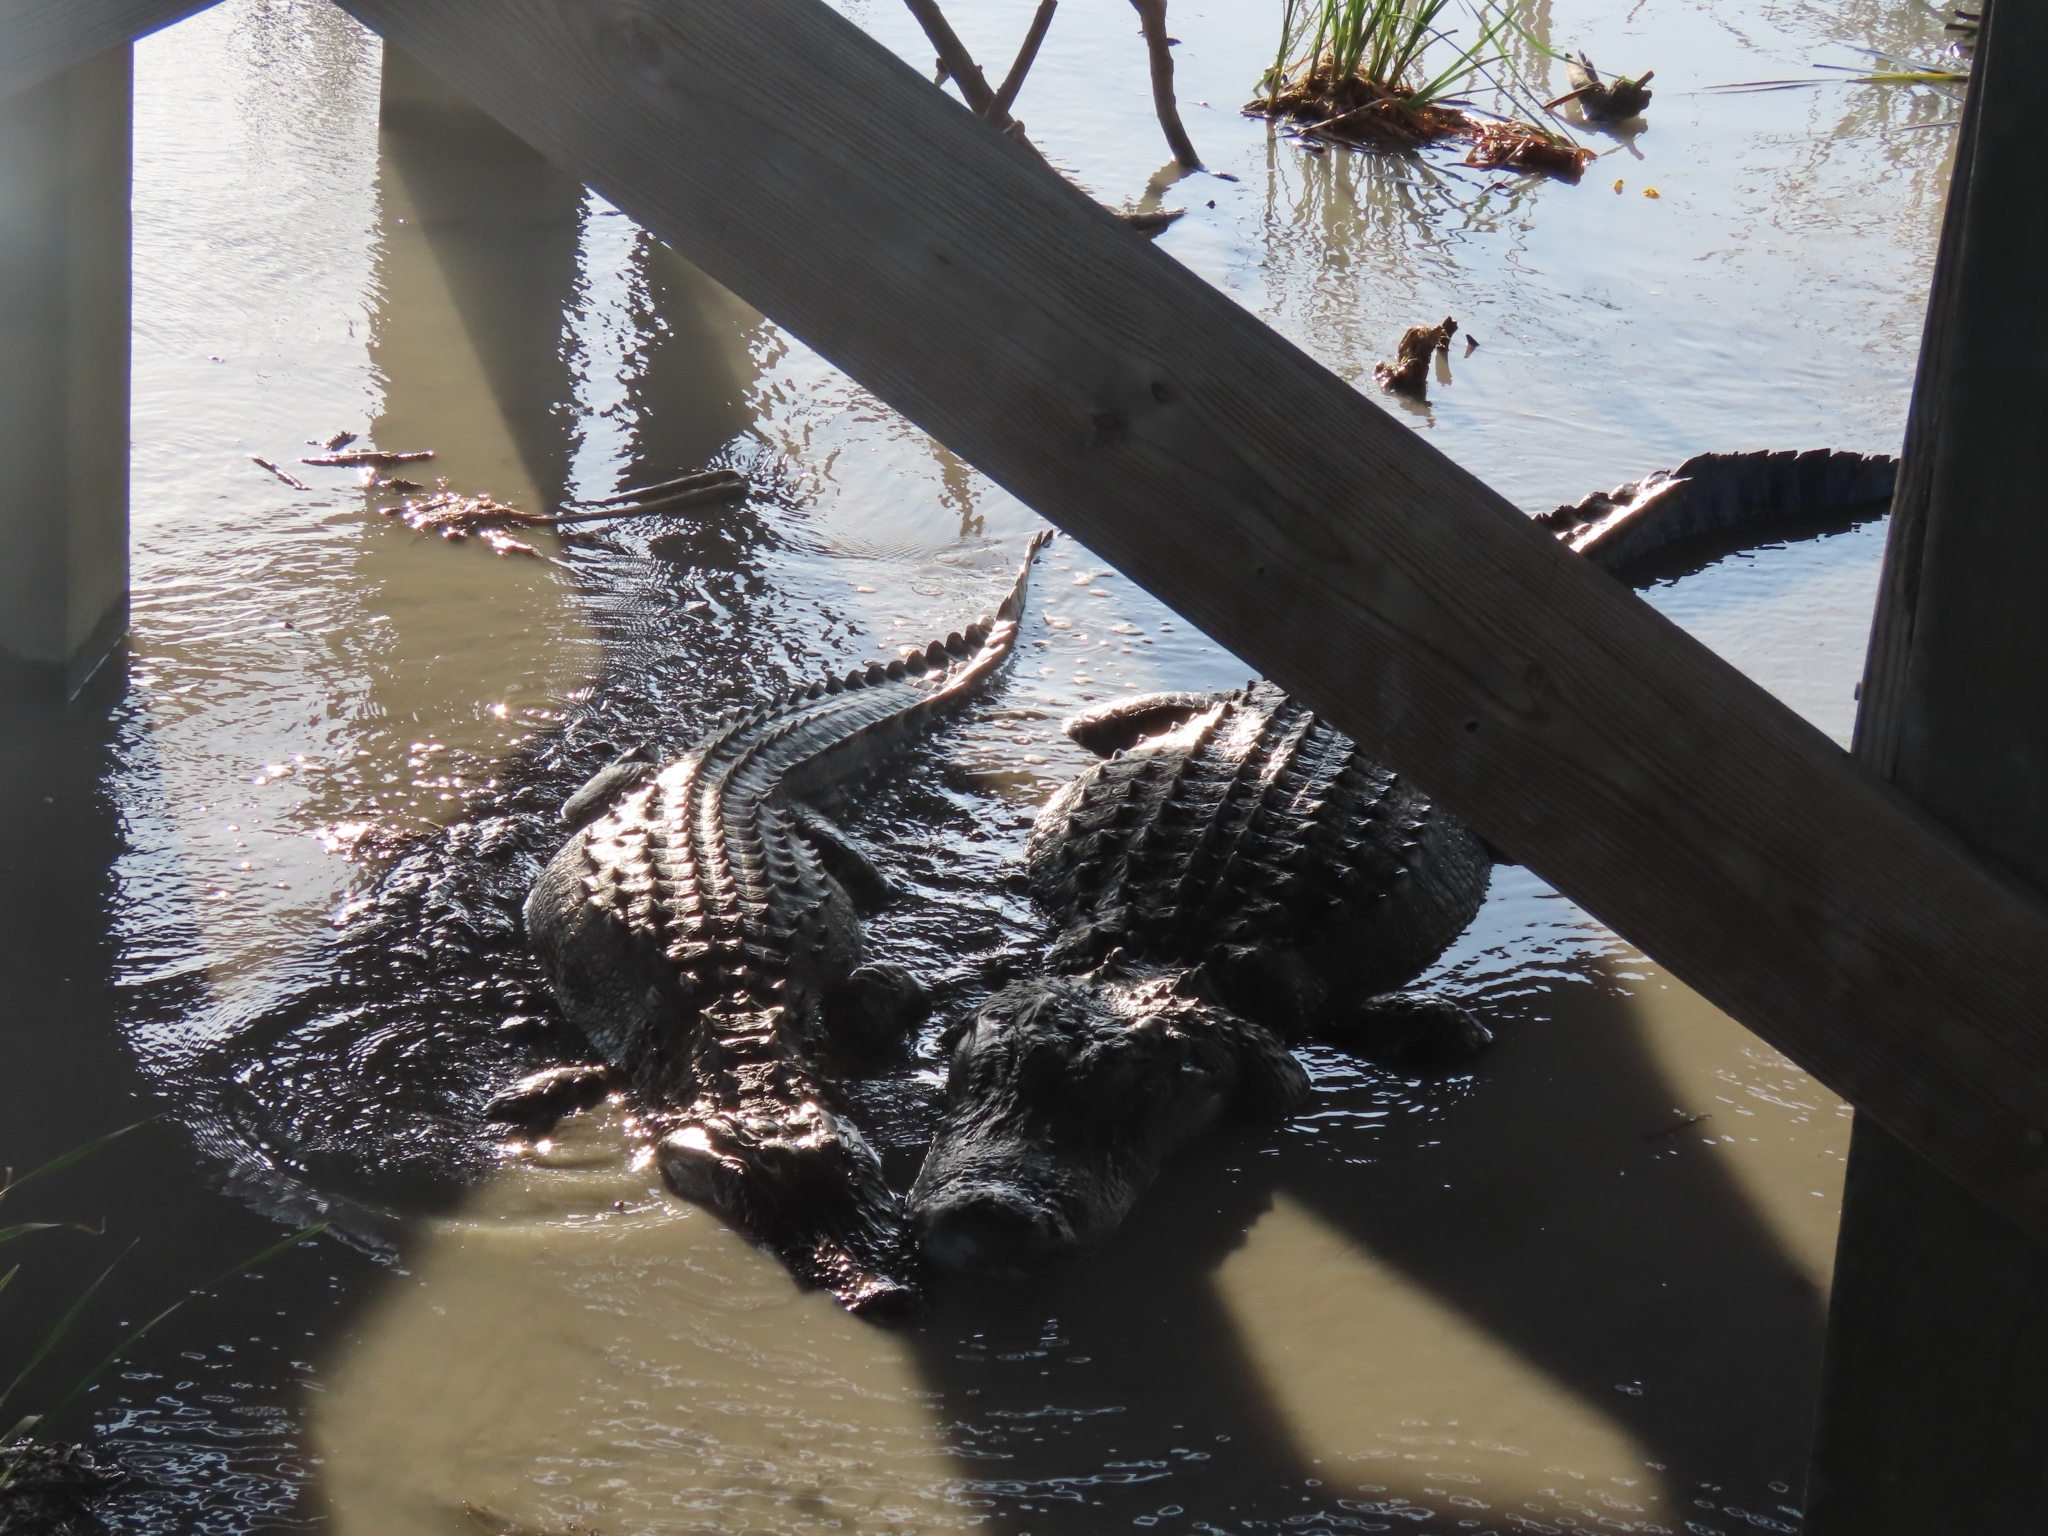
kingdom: Animalia
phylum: Chordata
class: Crocodylia
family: Alligatoridae
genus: Alligator
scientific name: Alligator mississippiensis
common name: American alligator
